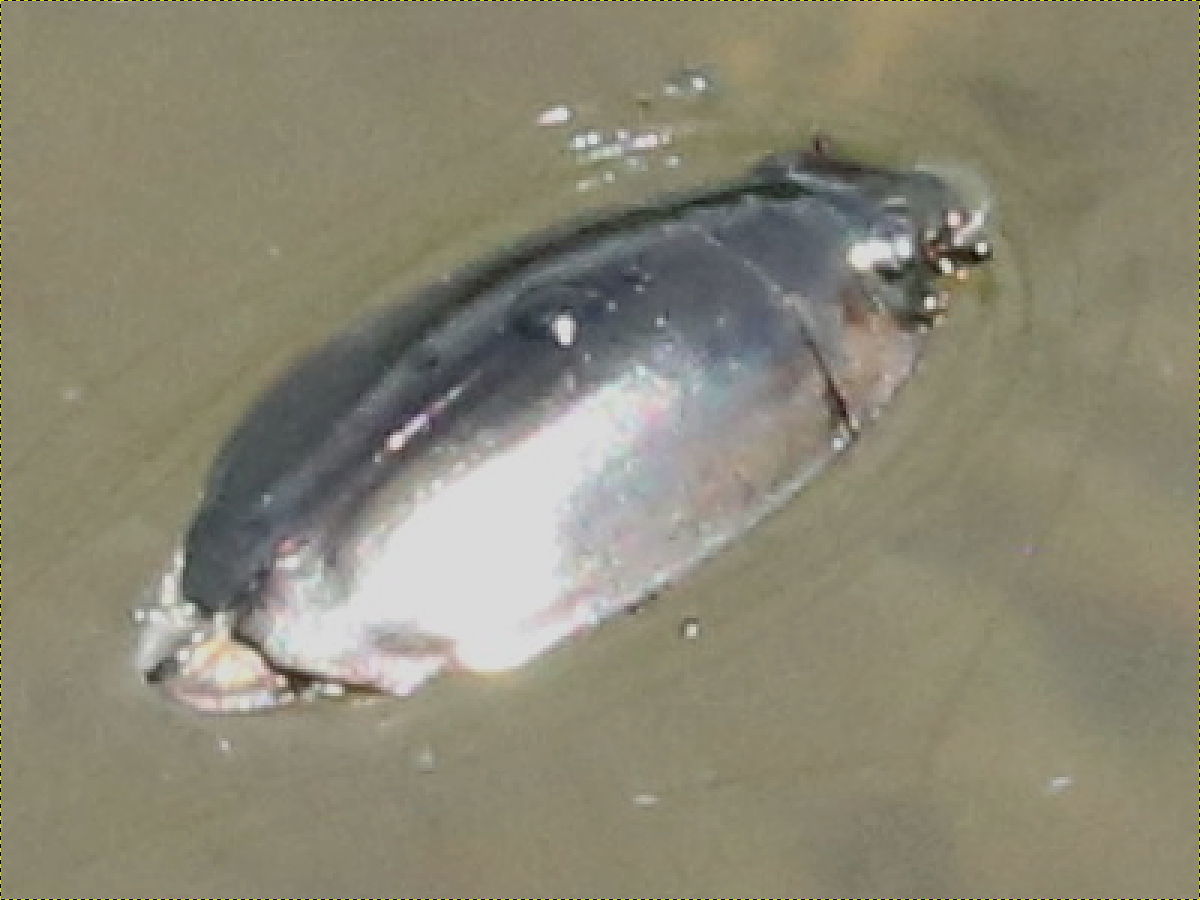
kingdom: Animalia
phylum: Arthropoda
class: Insecta
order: Coleoptera
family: Gyrinidae
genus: Dineutus
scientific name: Dineutus
